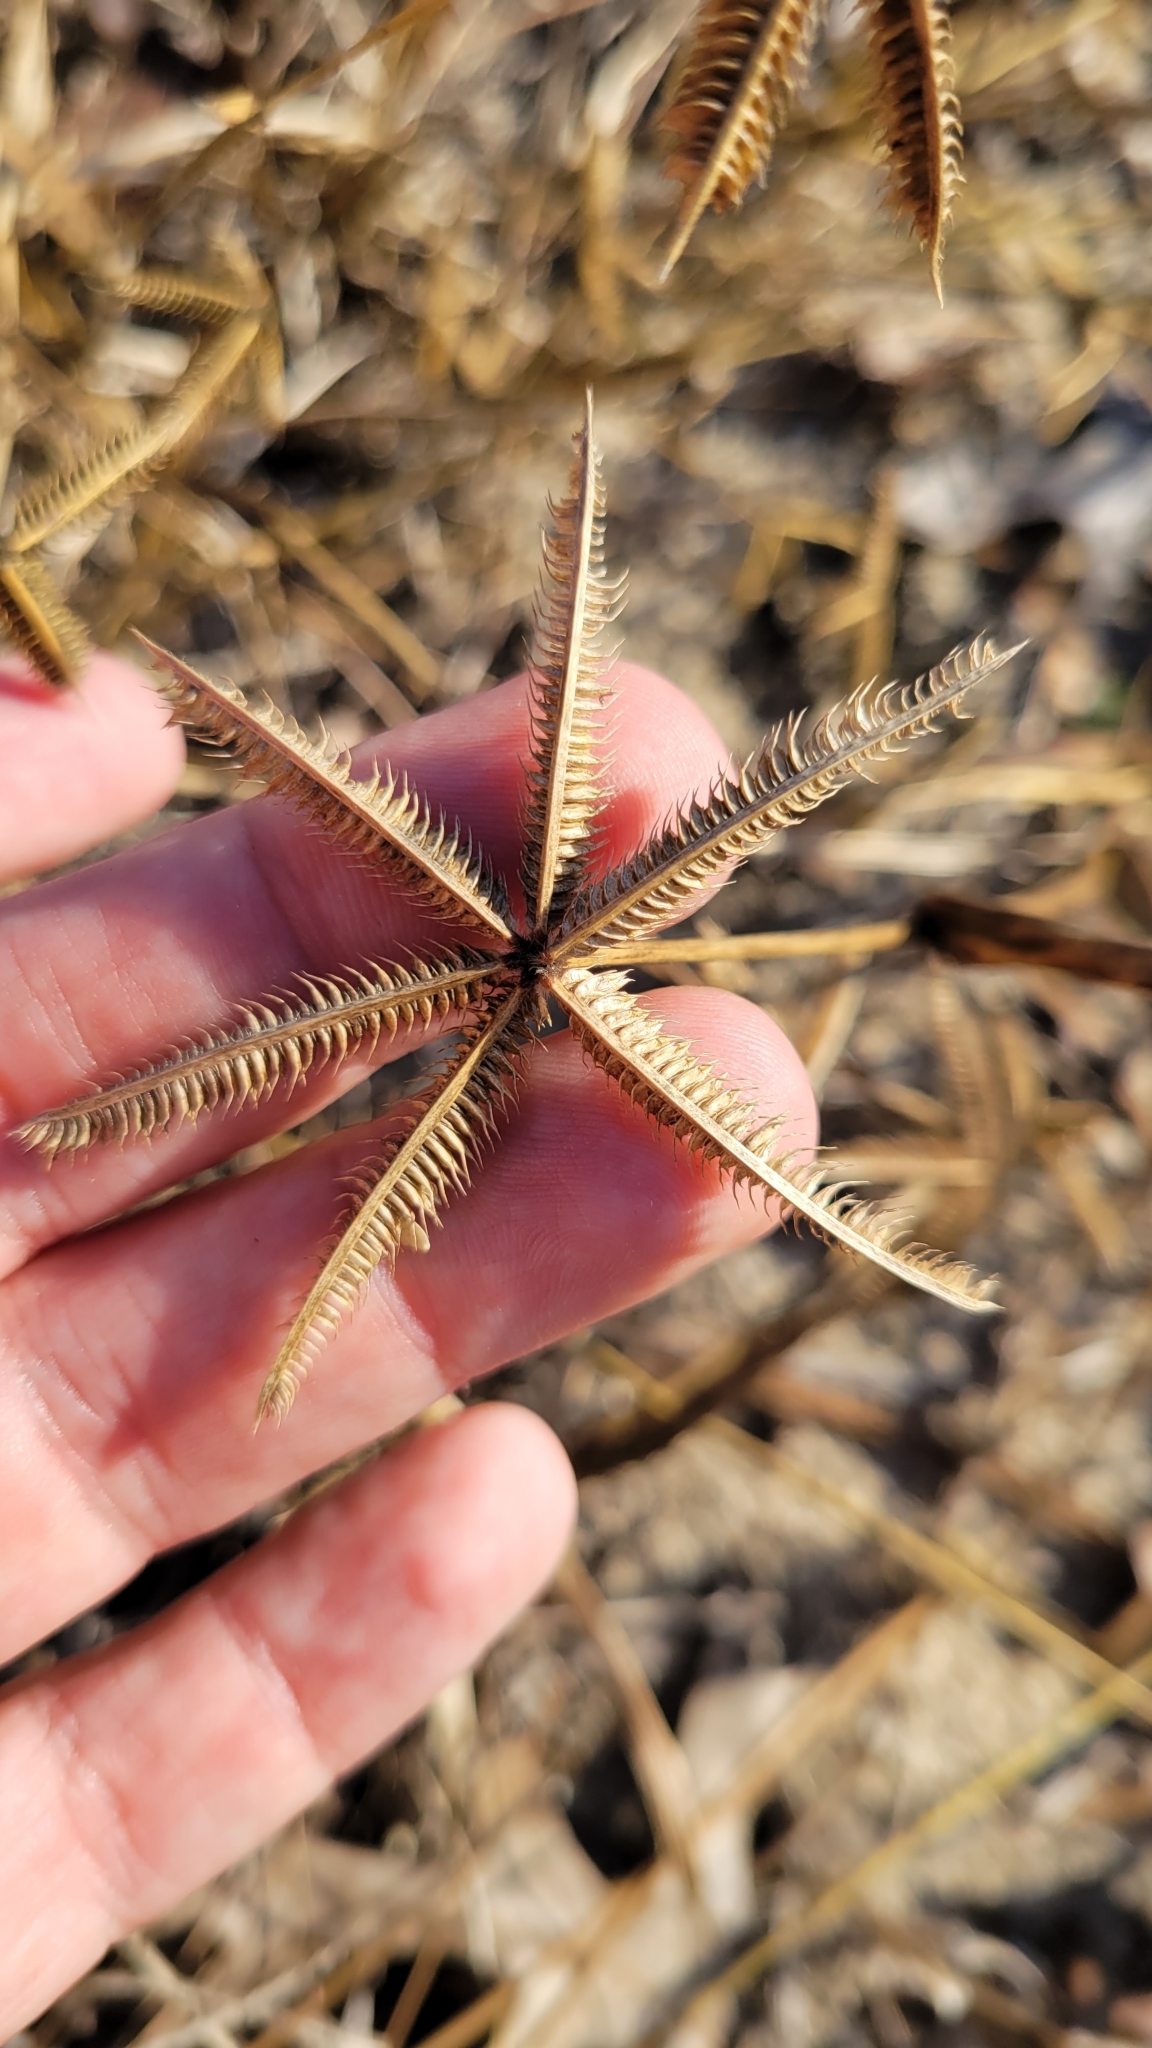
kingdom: Plantae
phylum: Tracheophyta
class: Liliopsida
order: Poales
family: Poaceae
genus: Dactyloctenium
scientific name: Dactyloctenium aegyptium
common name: Egyptian grass
